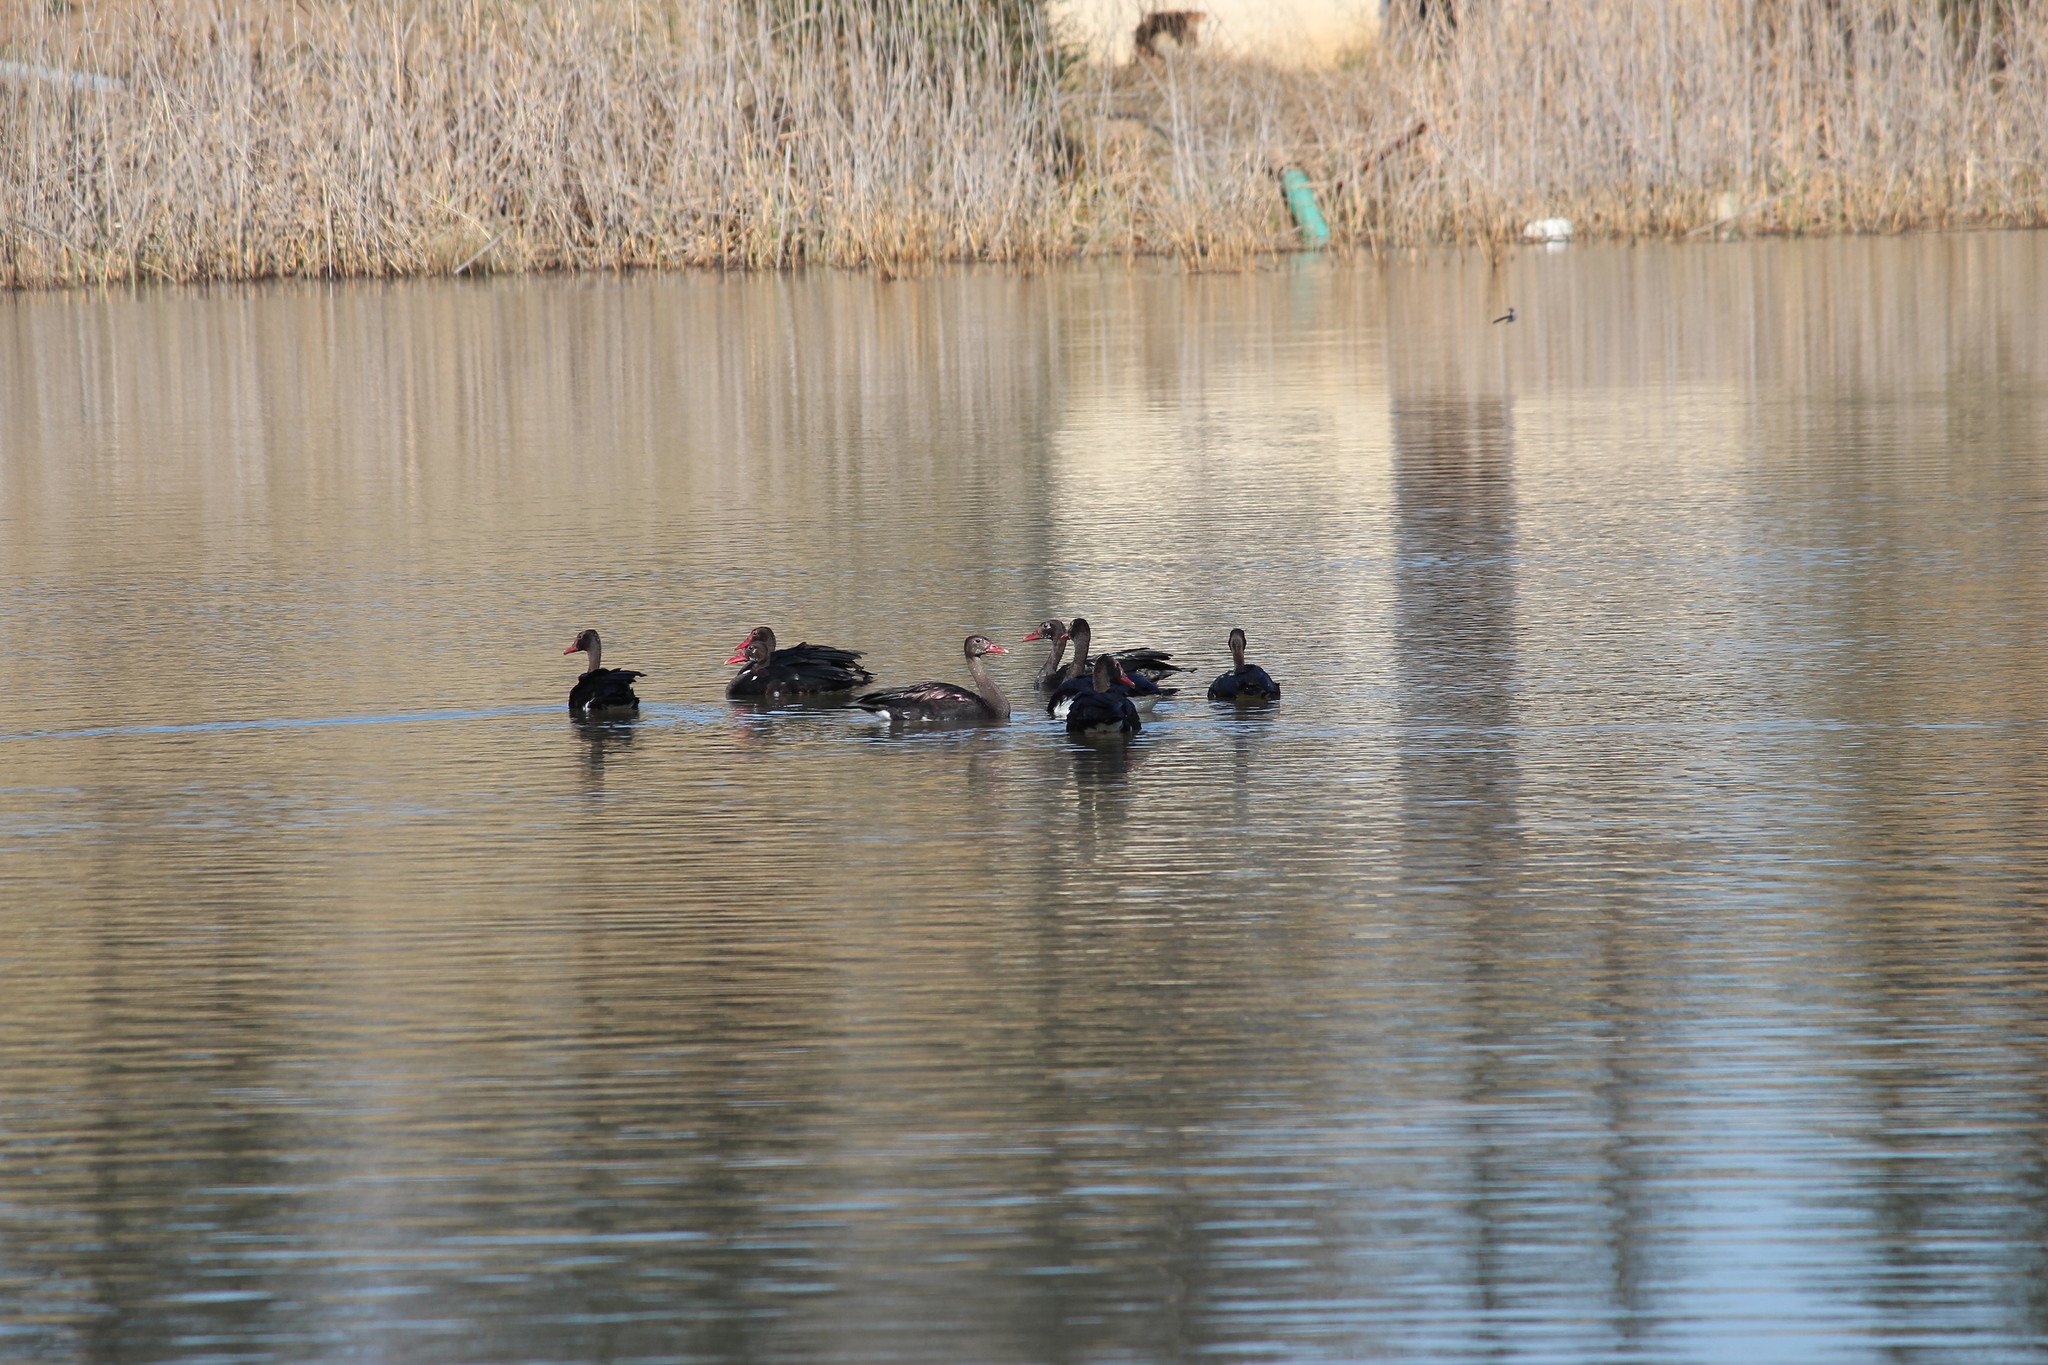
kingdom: Animalia
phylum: Chordata
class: Aves
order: Anseriformes
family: Anatidae
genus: Plectropterus
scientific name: Plectropterus gambensis
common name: Spur-winged goose
